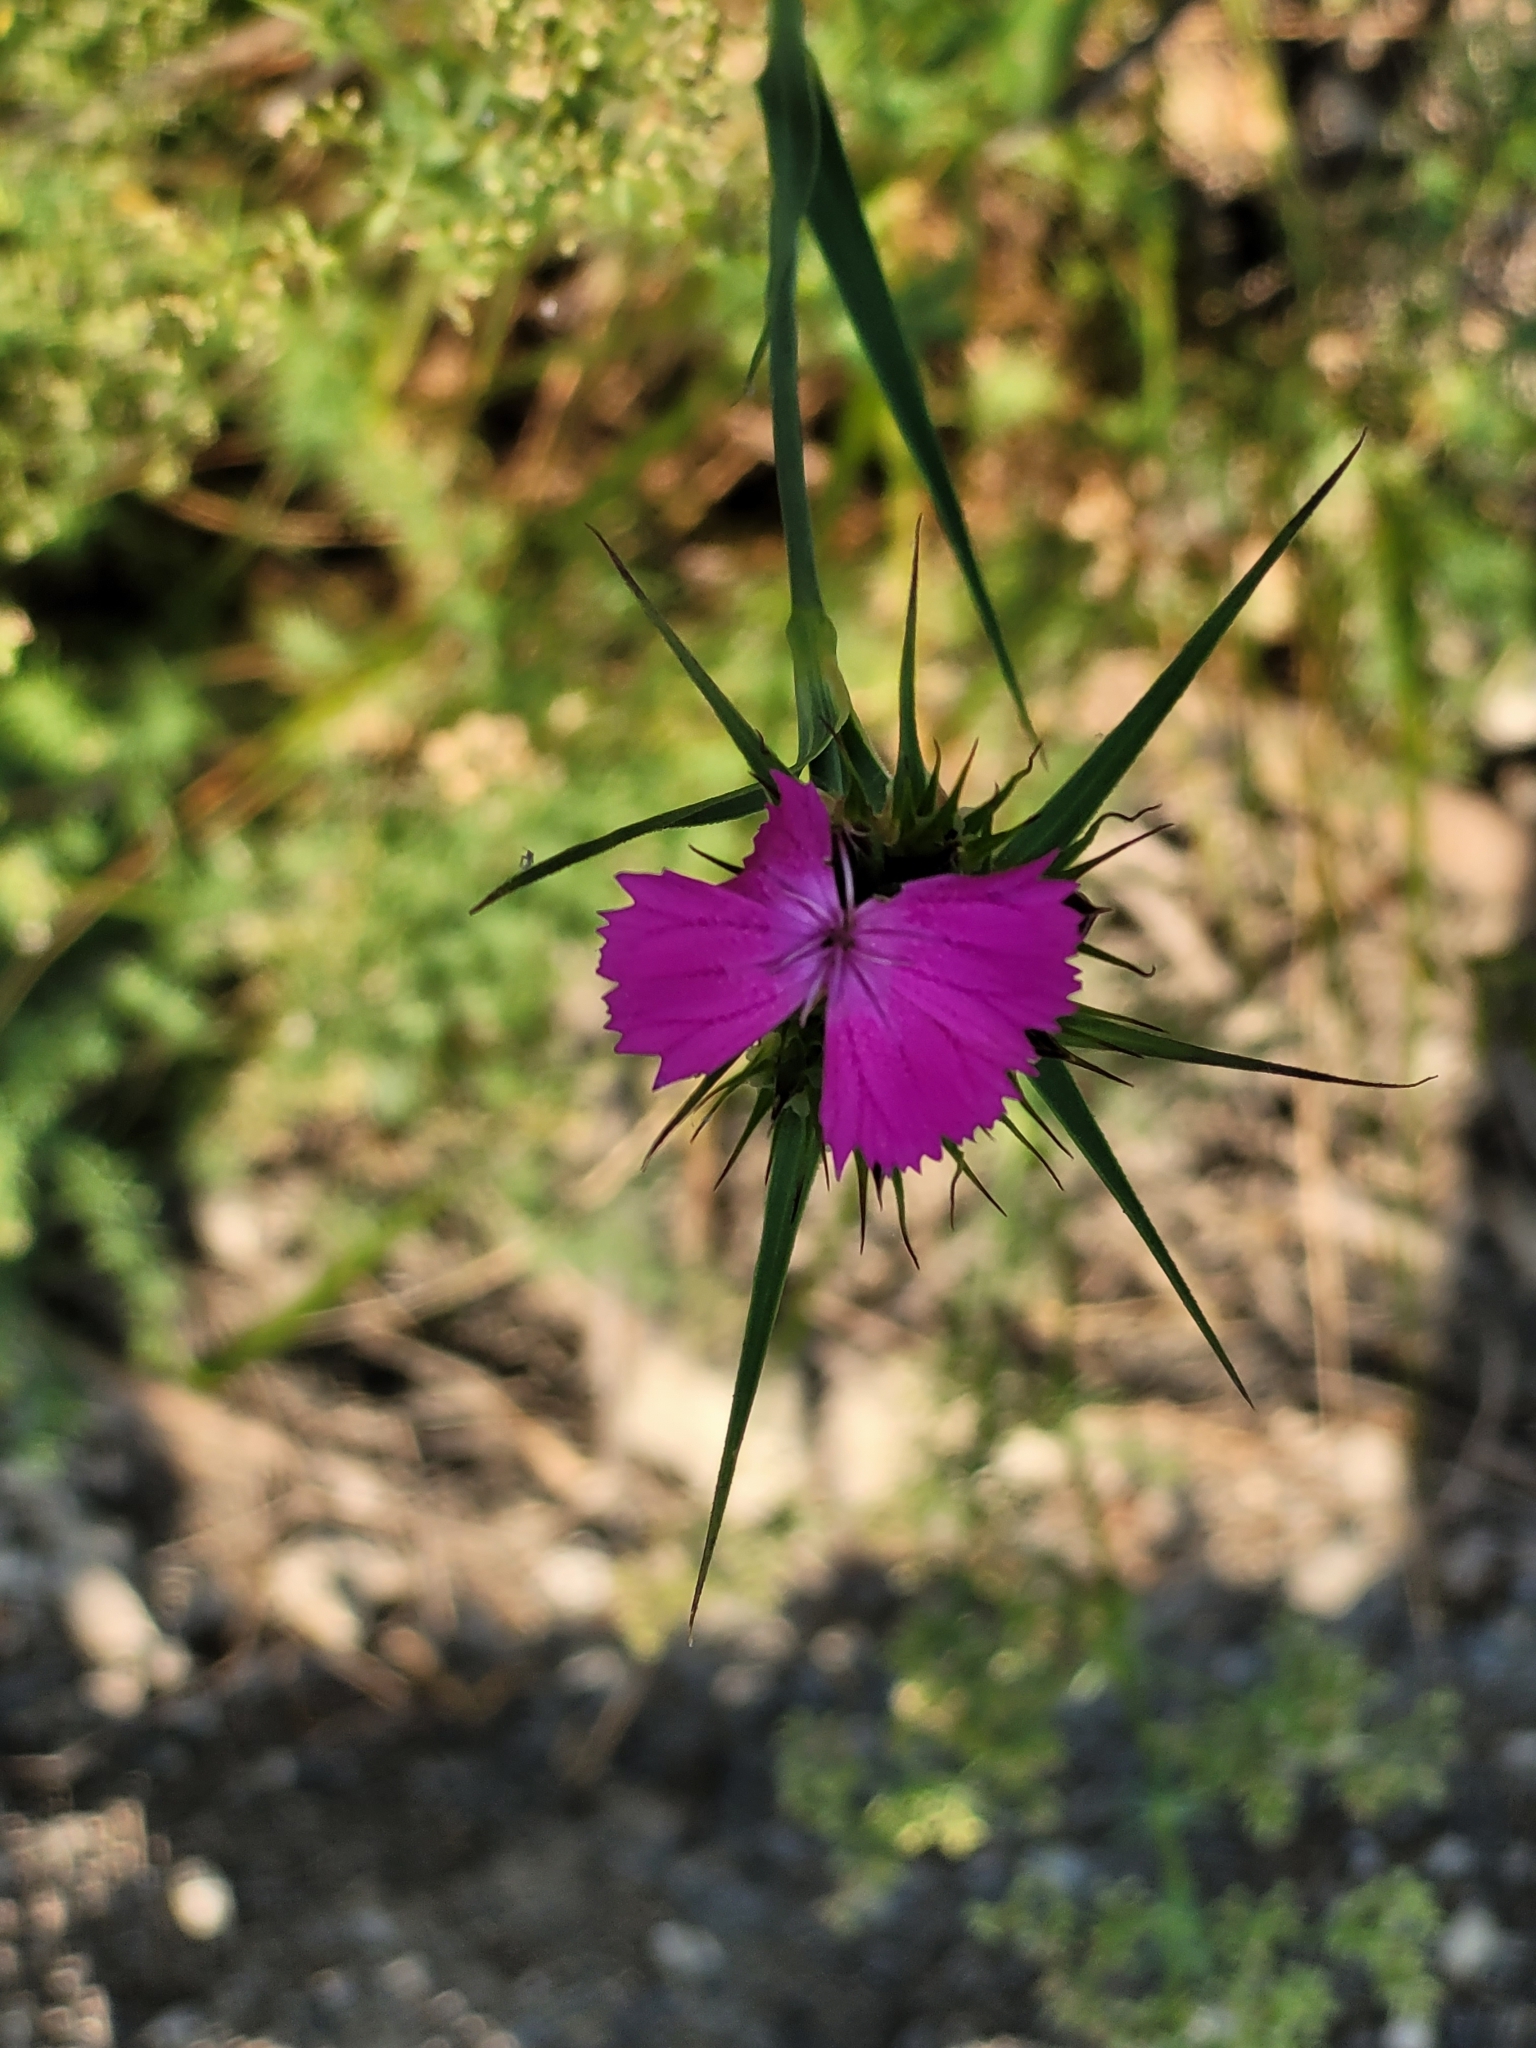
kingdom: Plantae
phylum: Tracheophyta
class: Magnoliopsida
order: Caryophyllales
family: Caryophyllaceae
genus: Dianthus
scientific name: Dianthus balbisii
